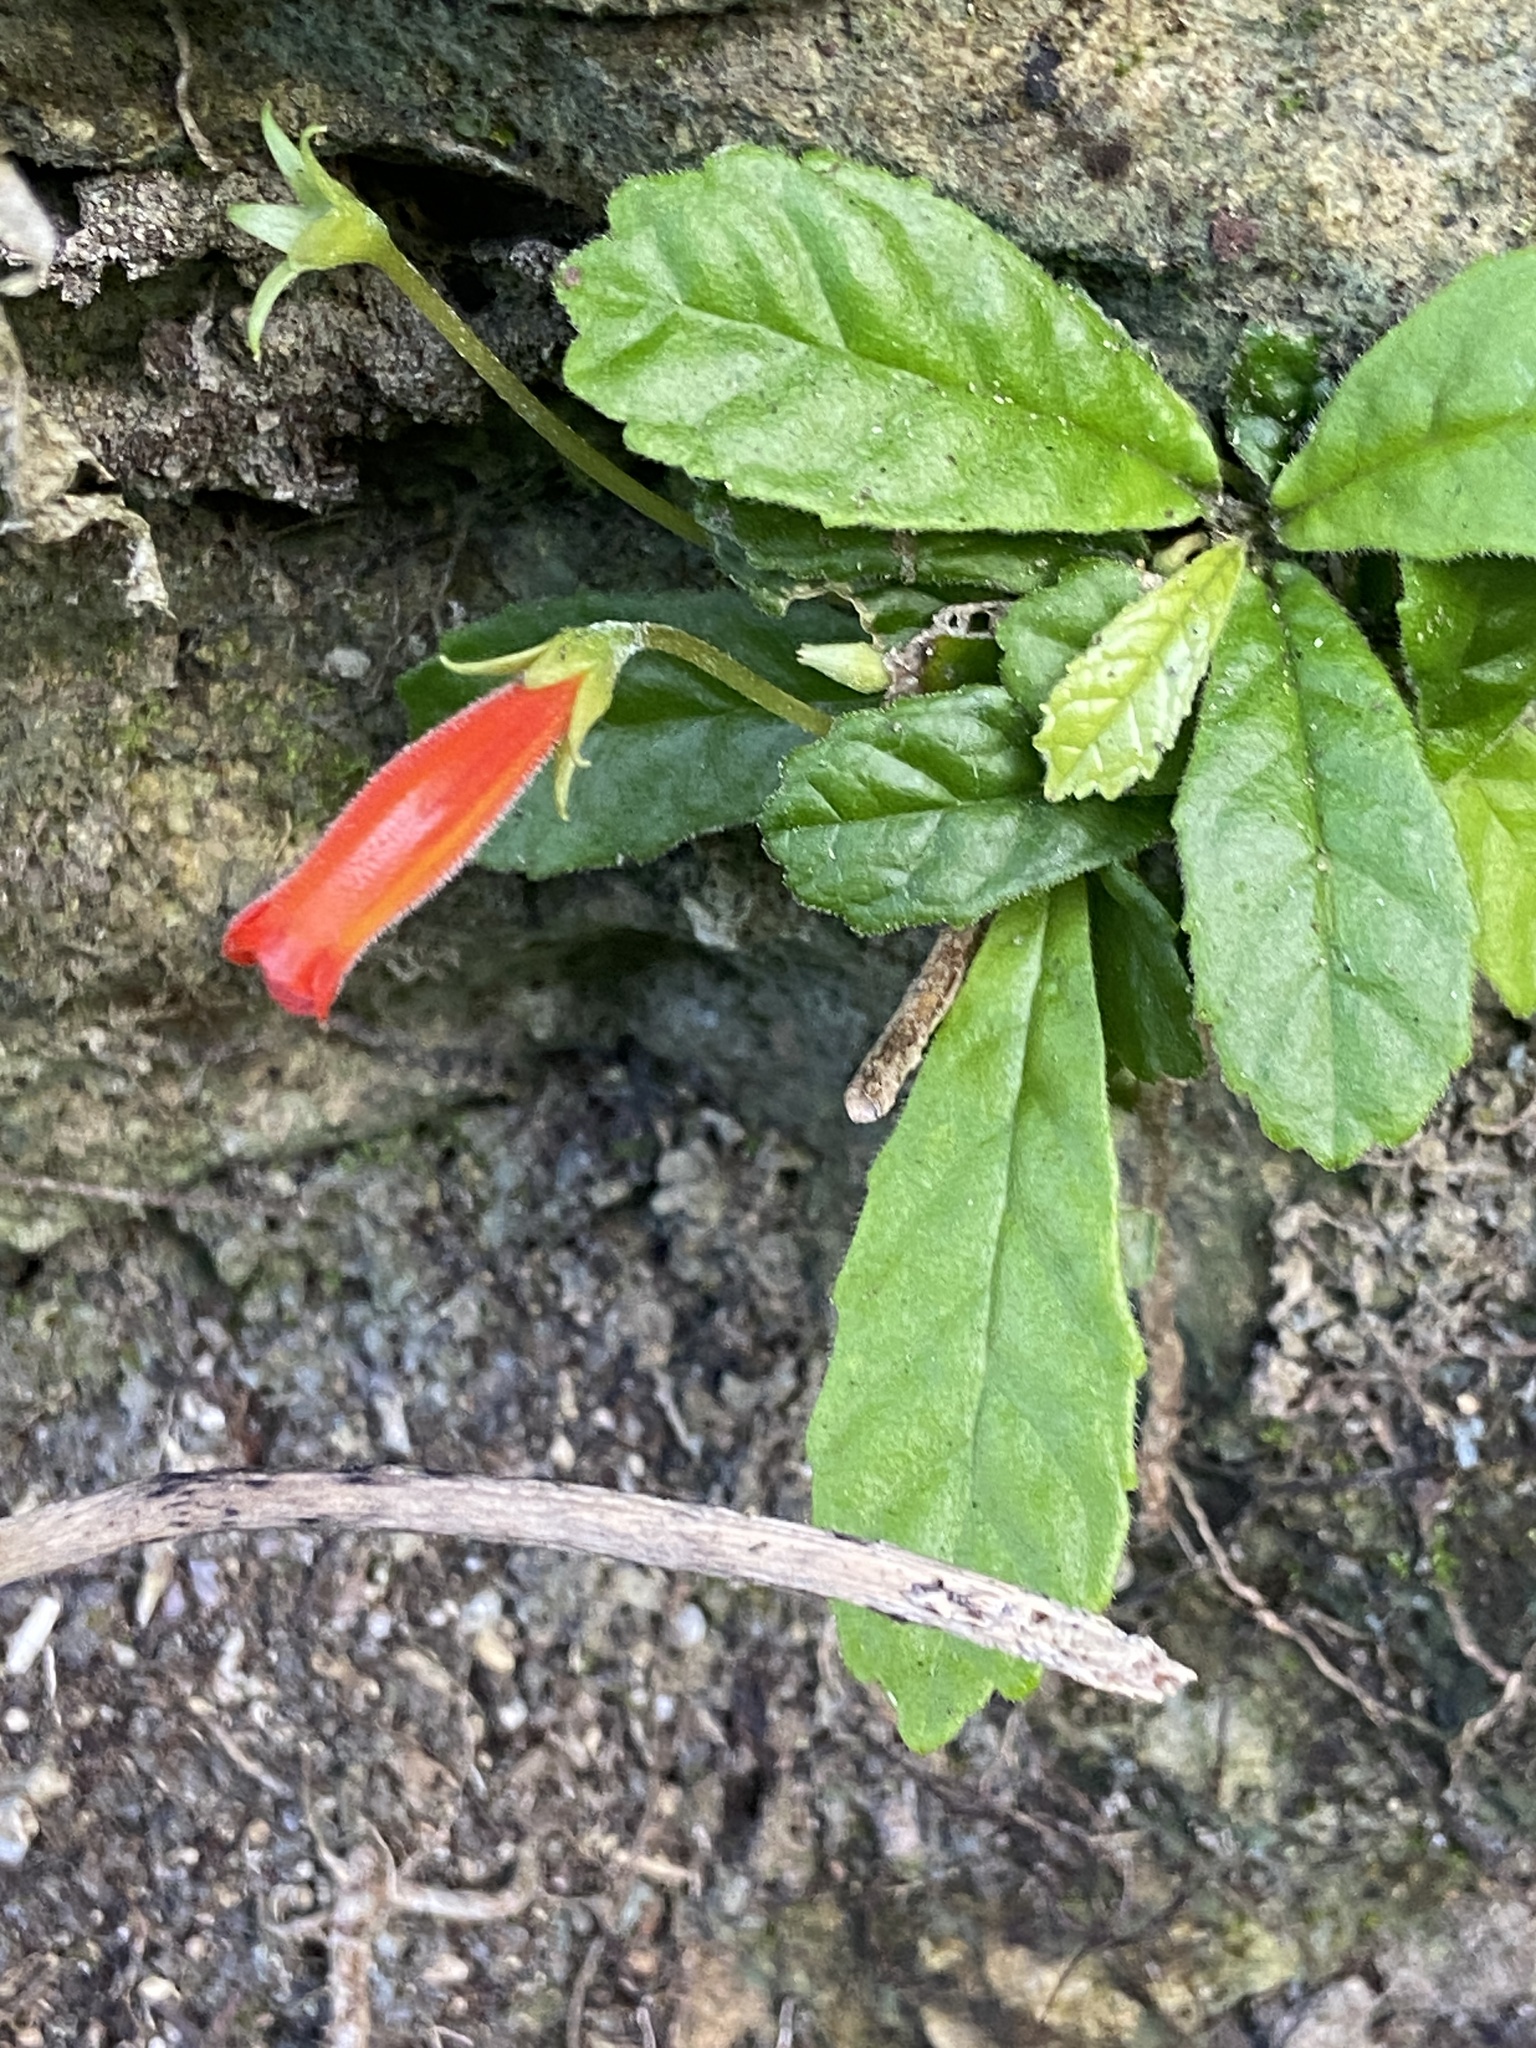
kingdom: Plantae
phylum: Tracheophyta
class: Magnoliopsida
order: Lamiales
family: Gesneriaceae
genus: Gesneria
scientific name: Gesneria cuneifolia
